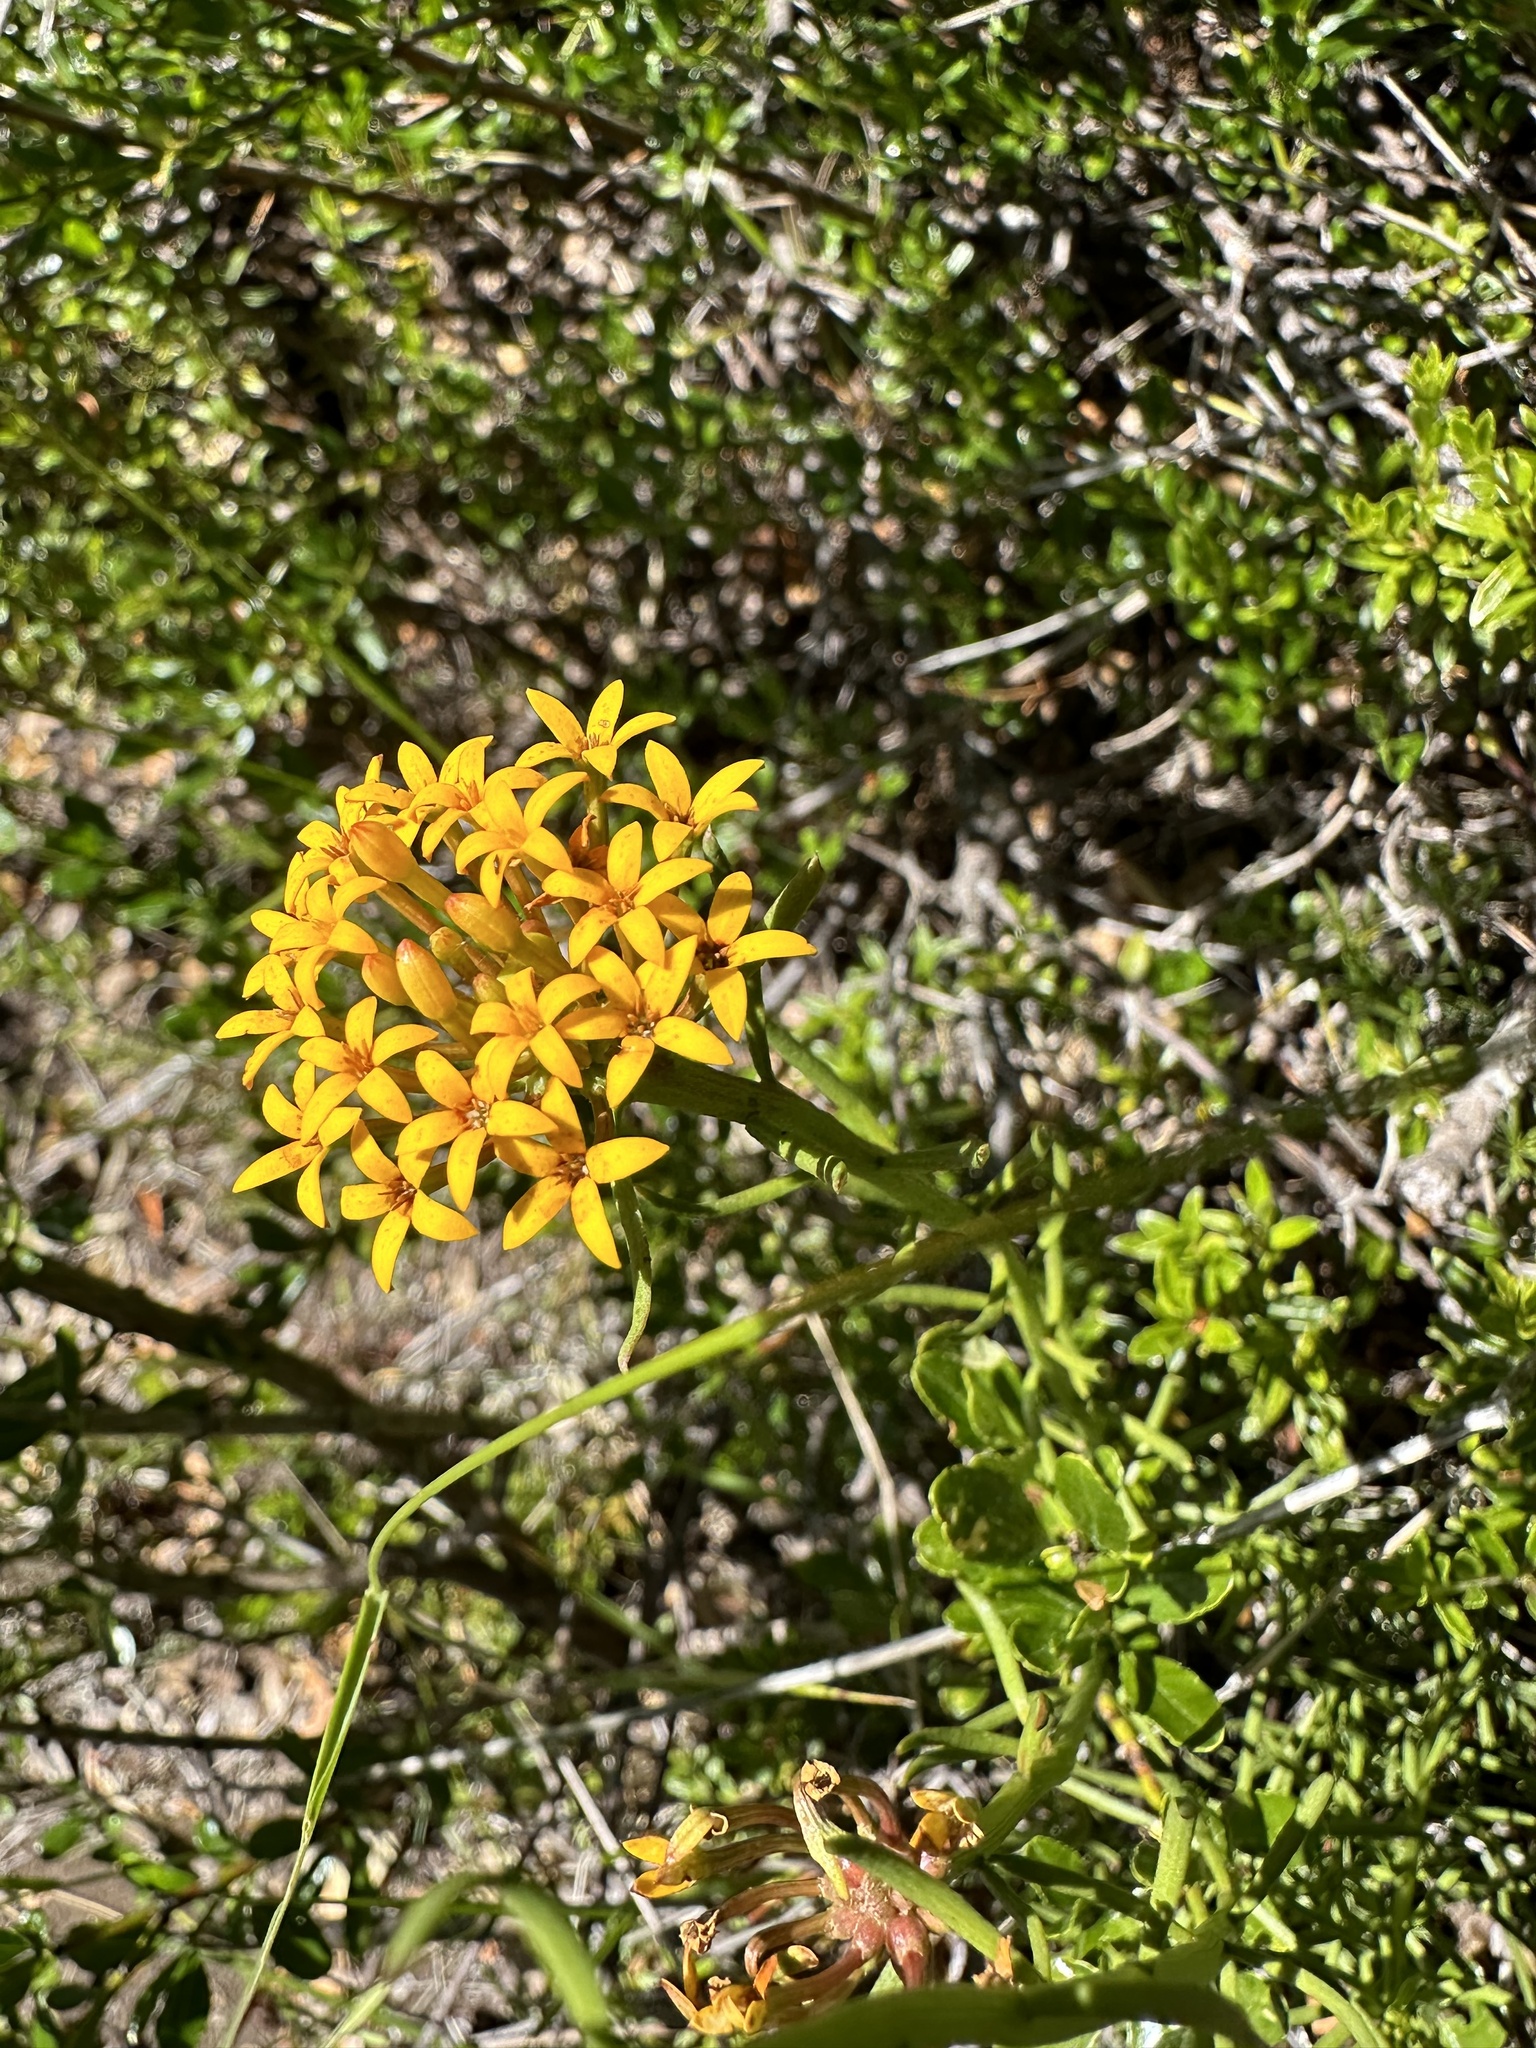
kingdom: Plantae
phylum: Tracheophyta
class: Magnoliopsida
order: Santalales
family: Schoepfiaceae
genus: Quinchamalium
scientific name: Quinchamalium chilense
